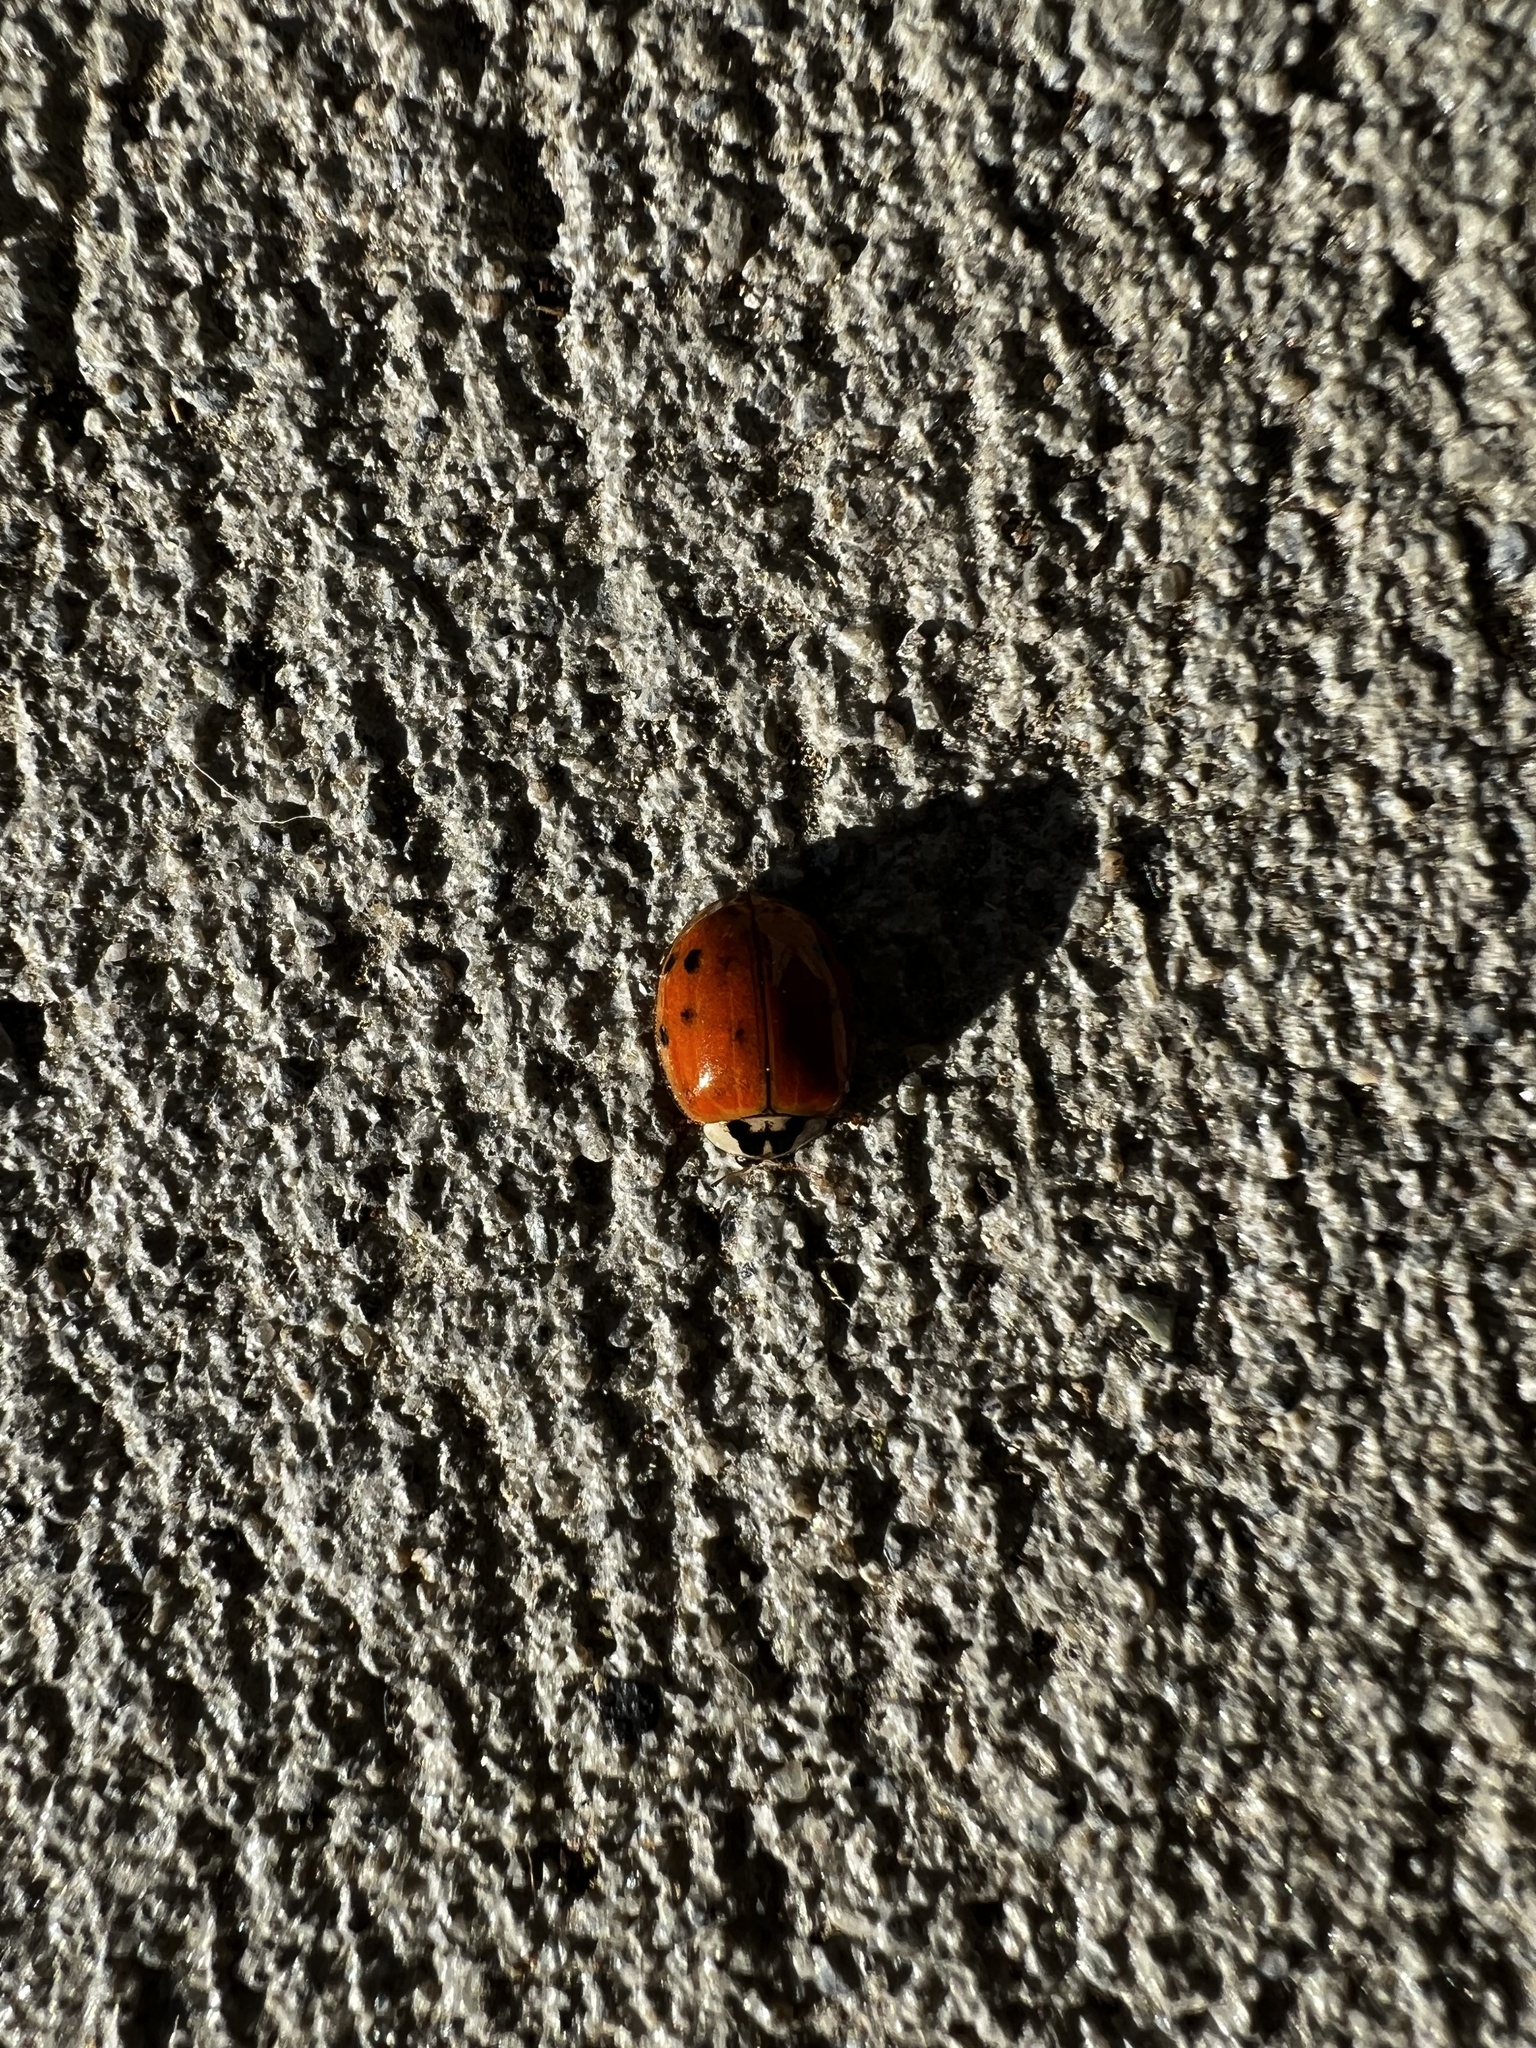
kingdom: Animalia
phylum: Arthropoda
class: Insecta
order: Coleoptera
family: Coccinellidae
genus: Harmonia
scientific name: Harmonia axyridis
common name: Harlequin ladybird
